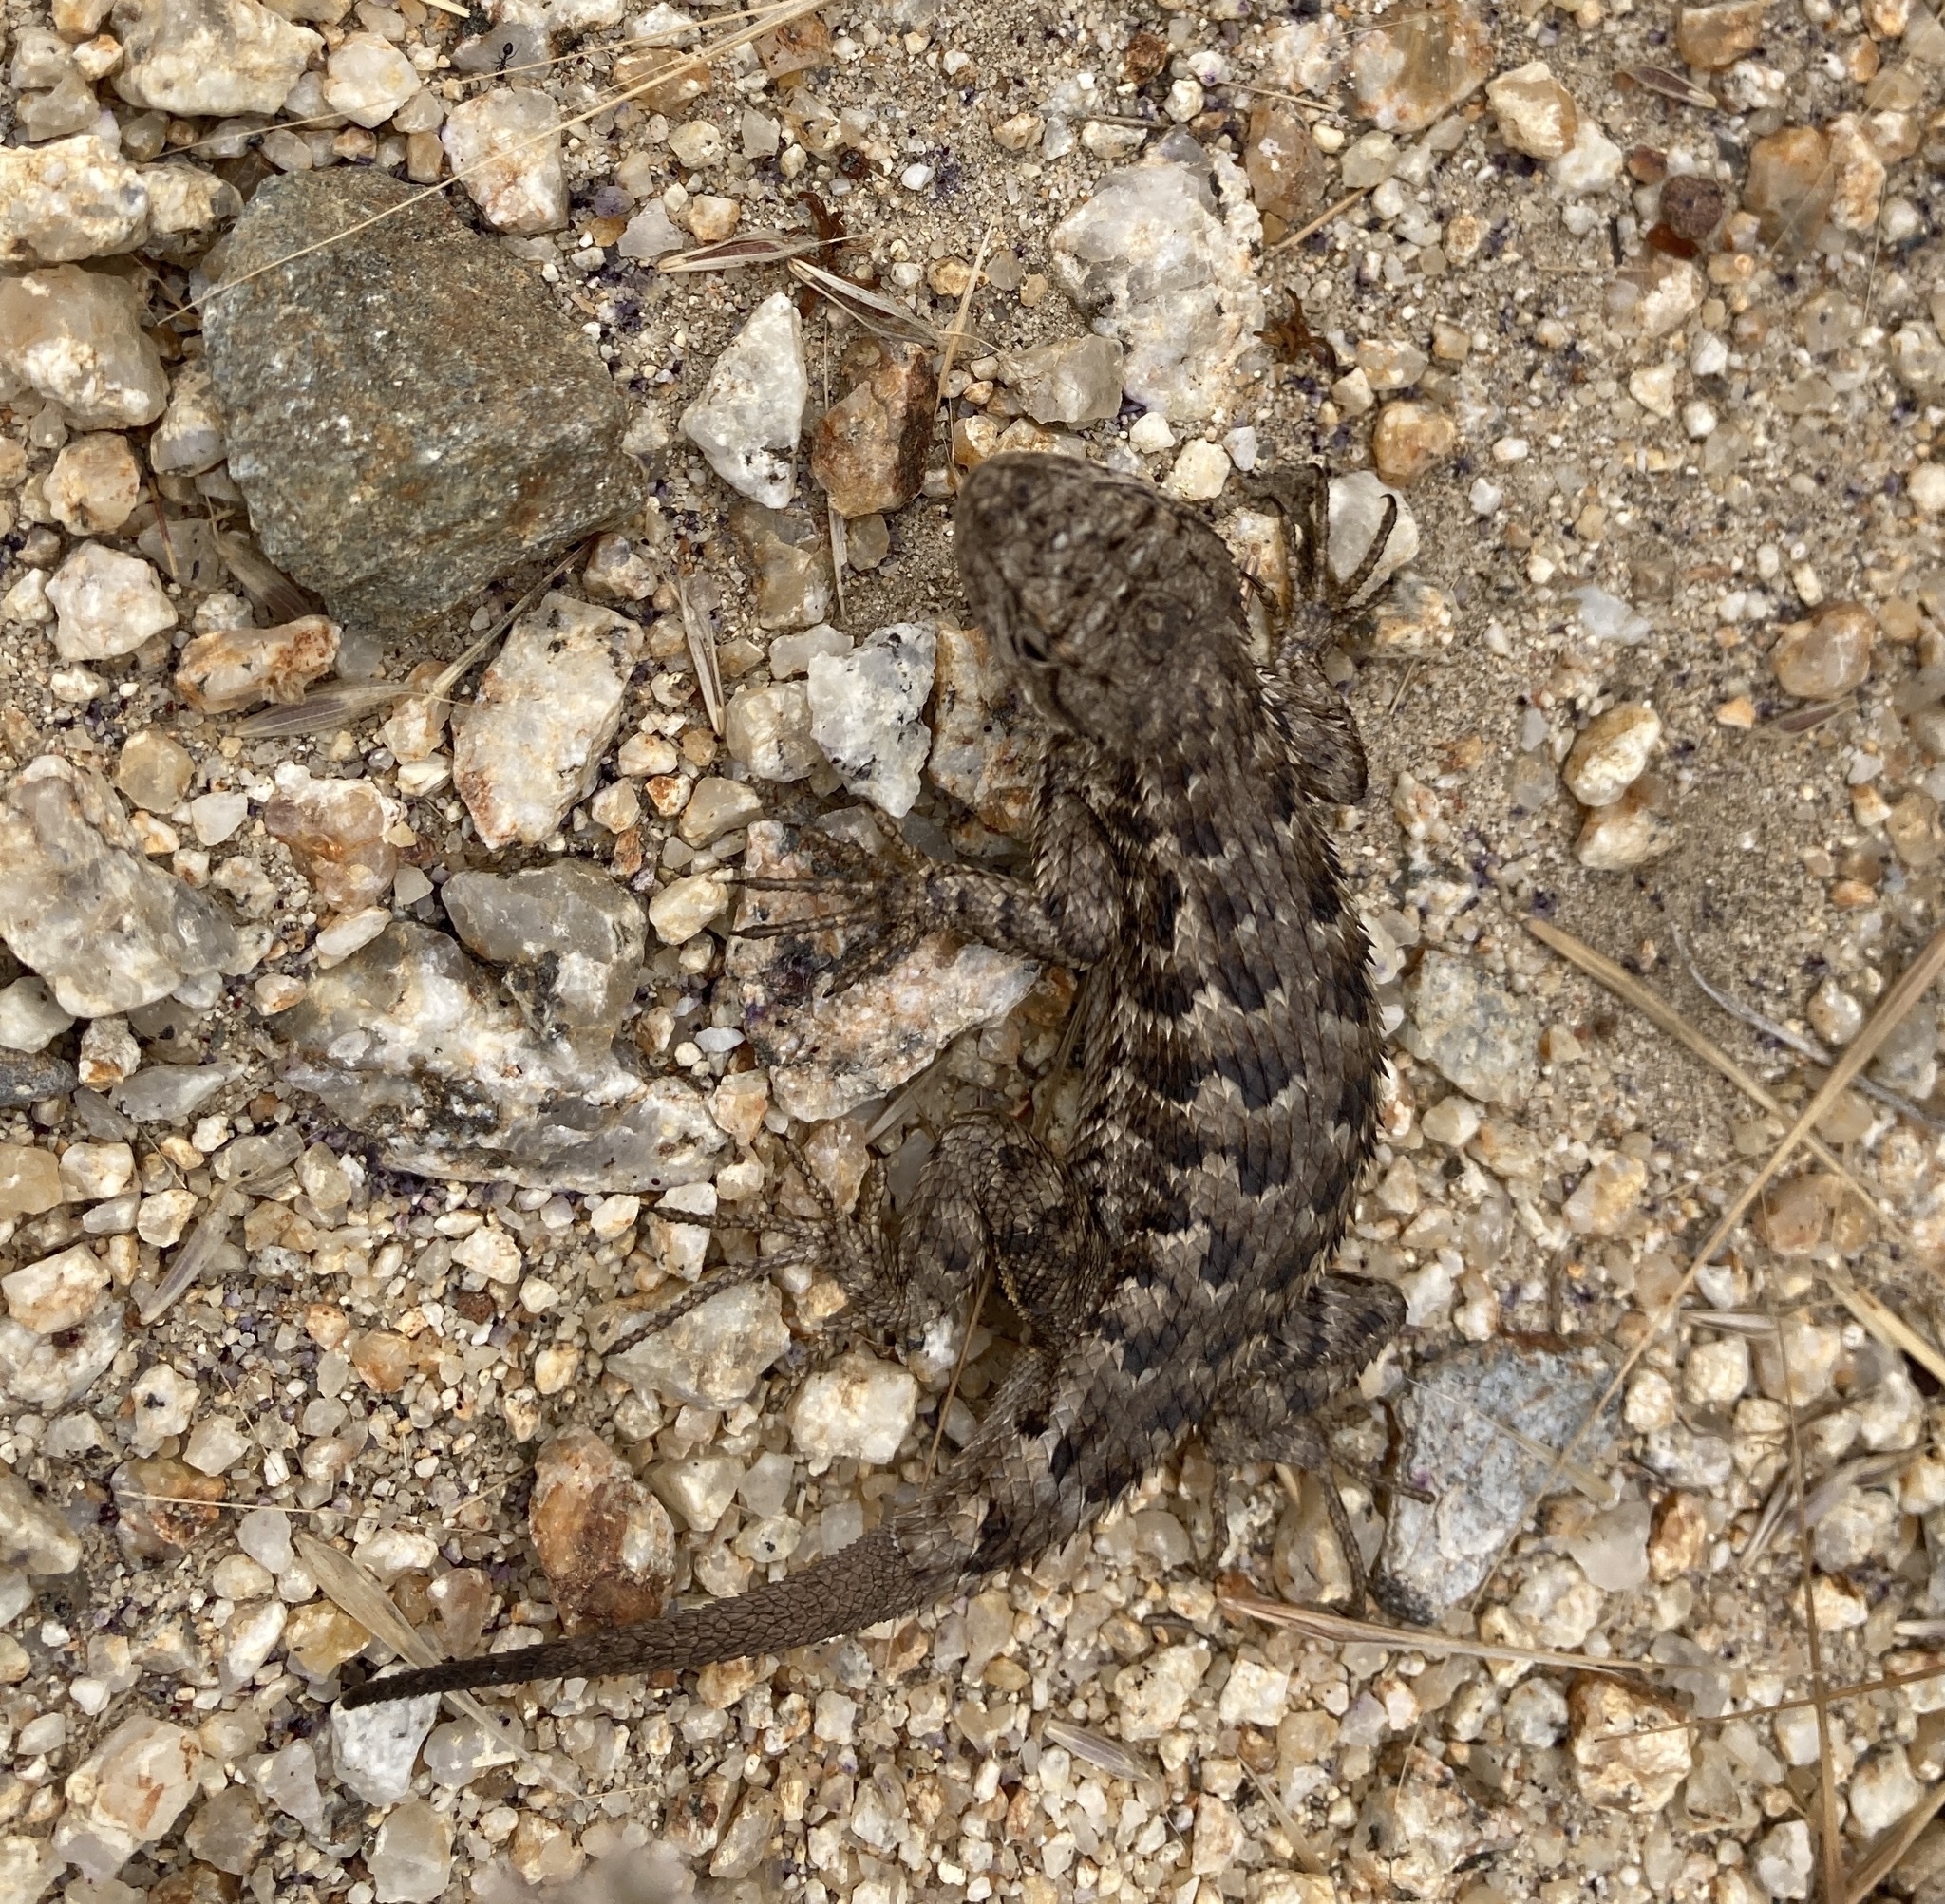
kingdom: Animalia
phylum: Chordata
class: Squamata
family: Phrynosomatidae
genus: Sceloporus
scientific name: Sceloporus occidentalis
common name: Western fence lizard
